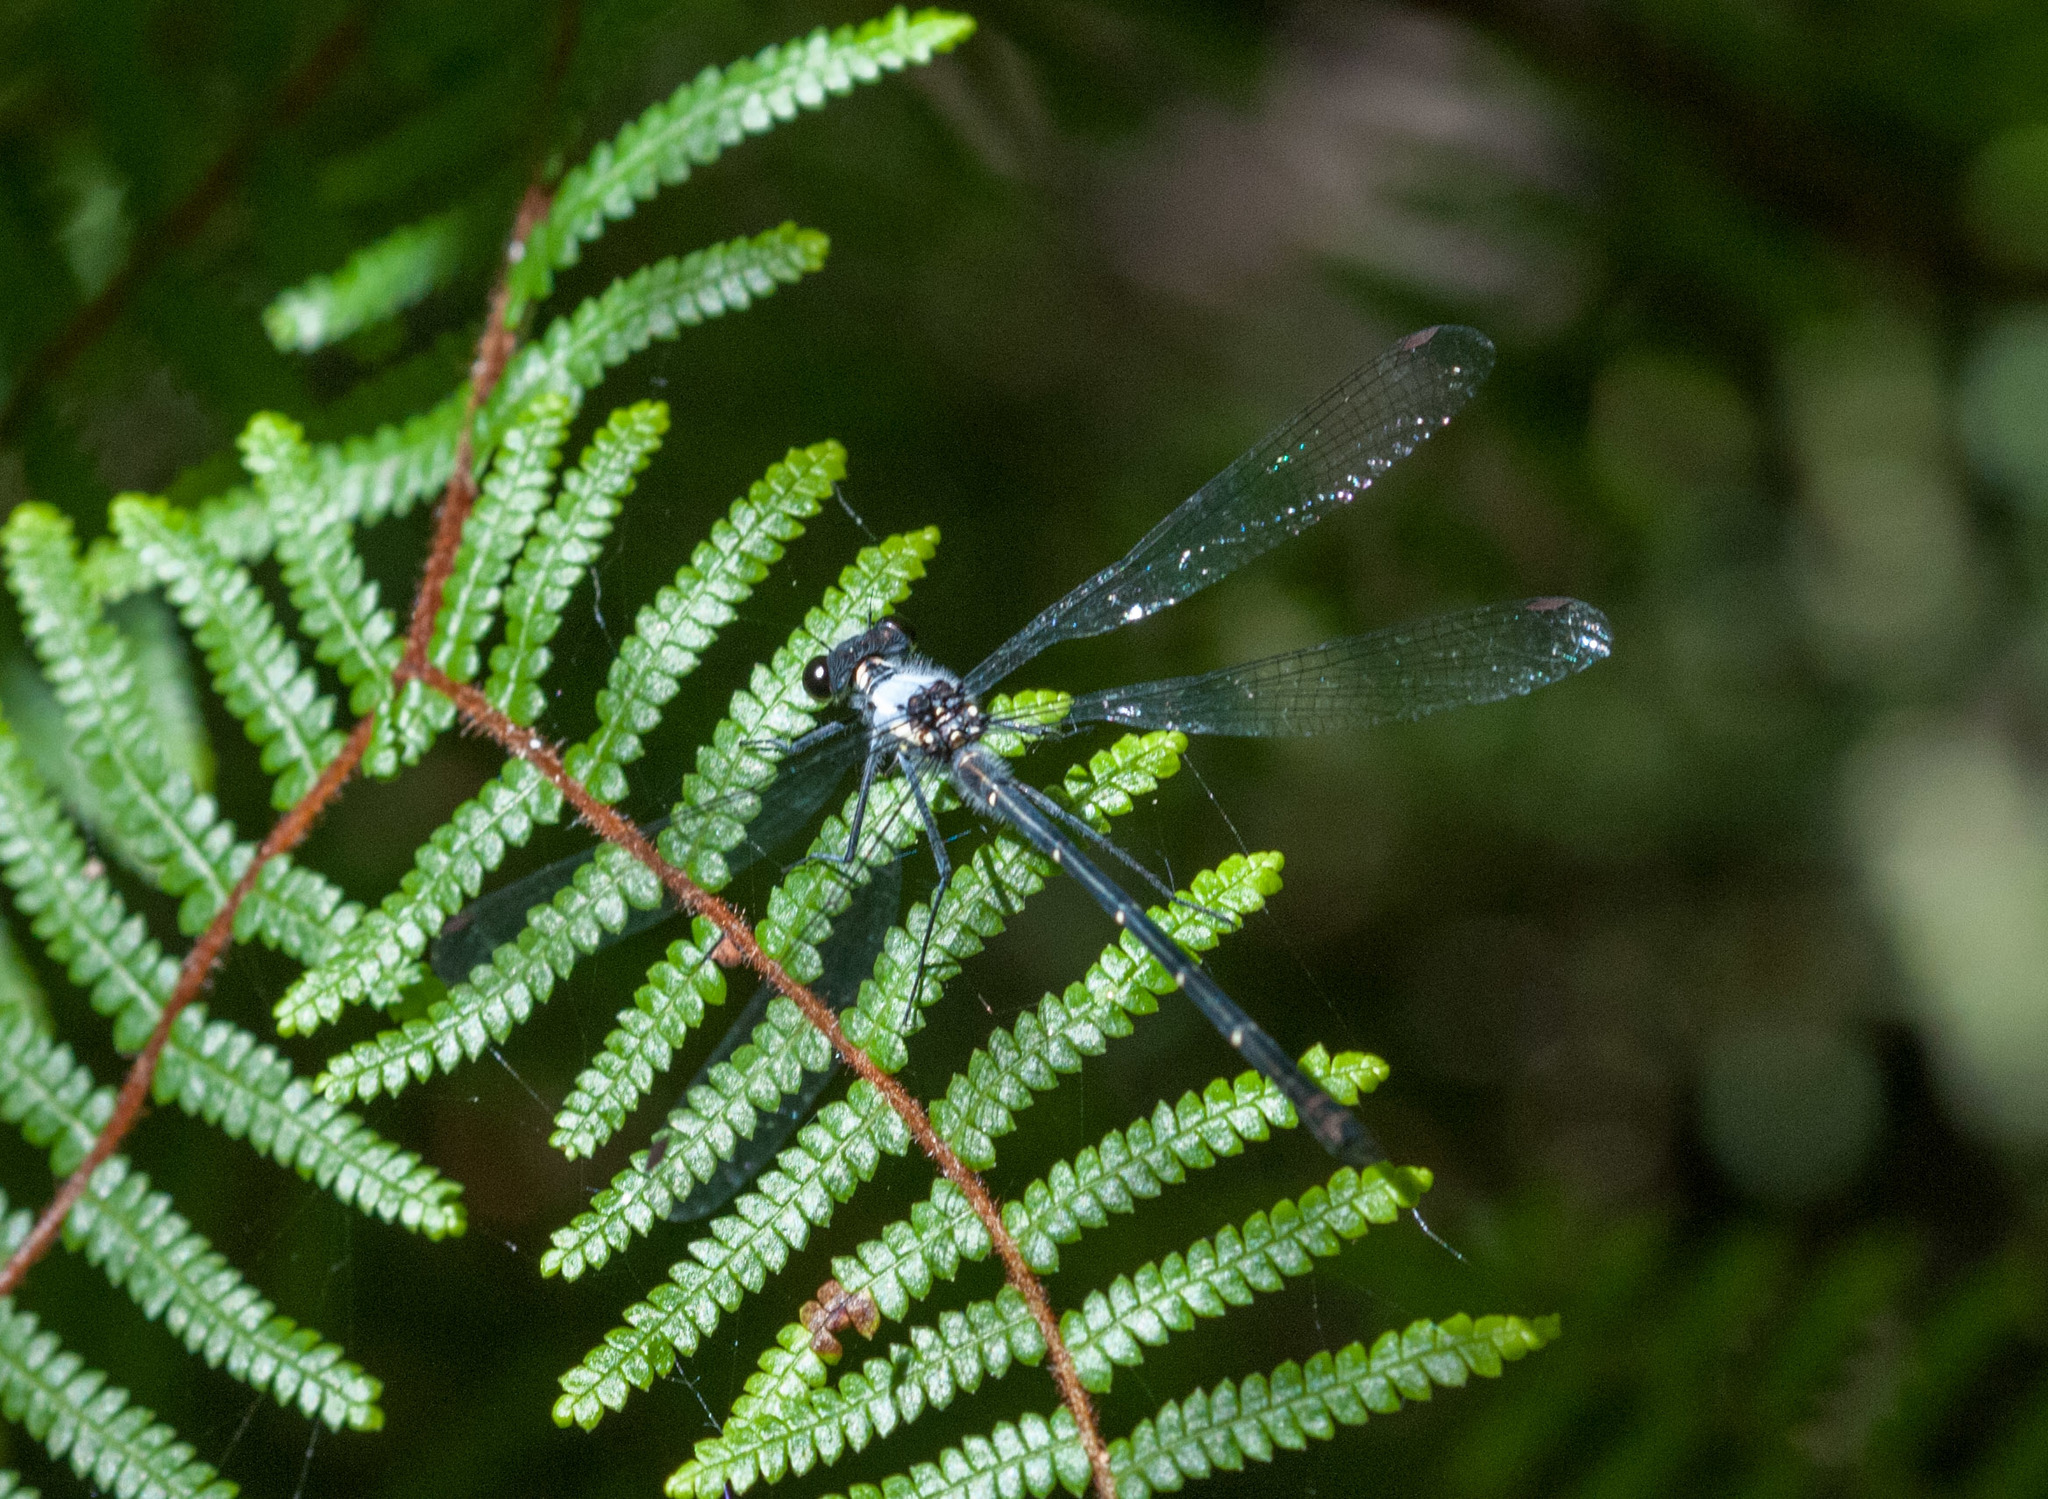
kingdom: Animalia
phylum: Arthropoda
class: Insecta
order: Odonata
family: Argiolestidae
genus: Austroargiolestes
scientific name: Austroargiolestes calcaris
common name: Powdered flatwing
